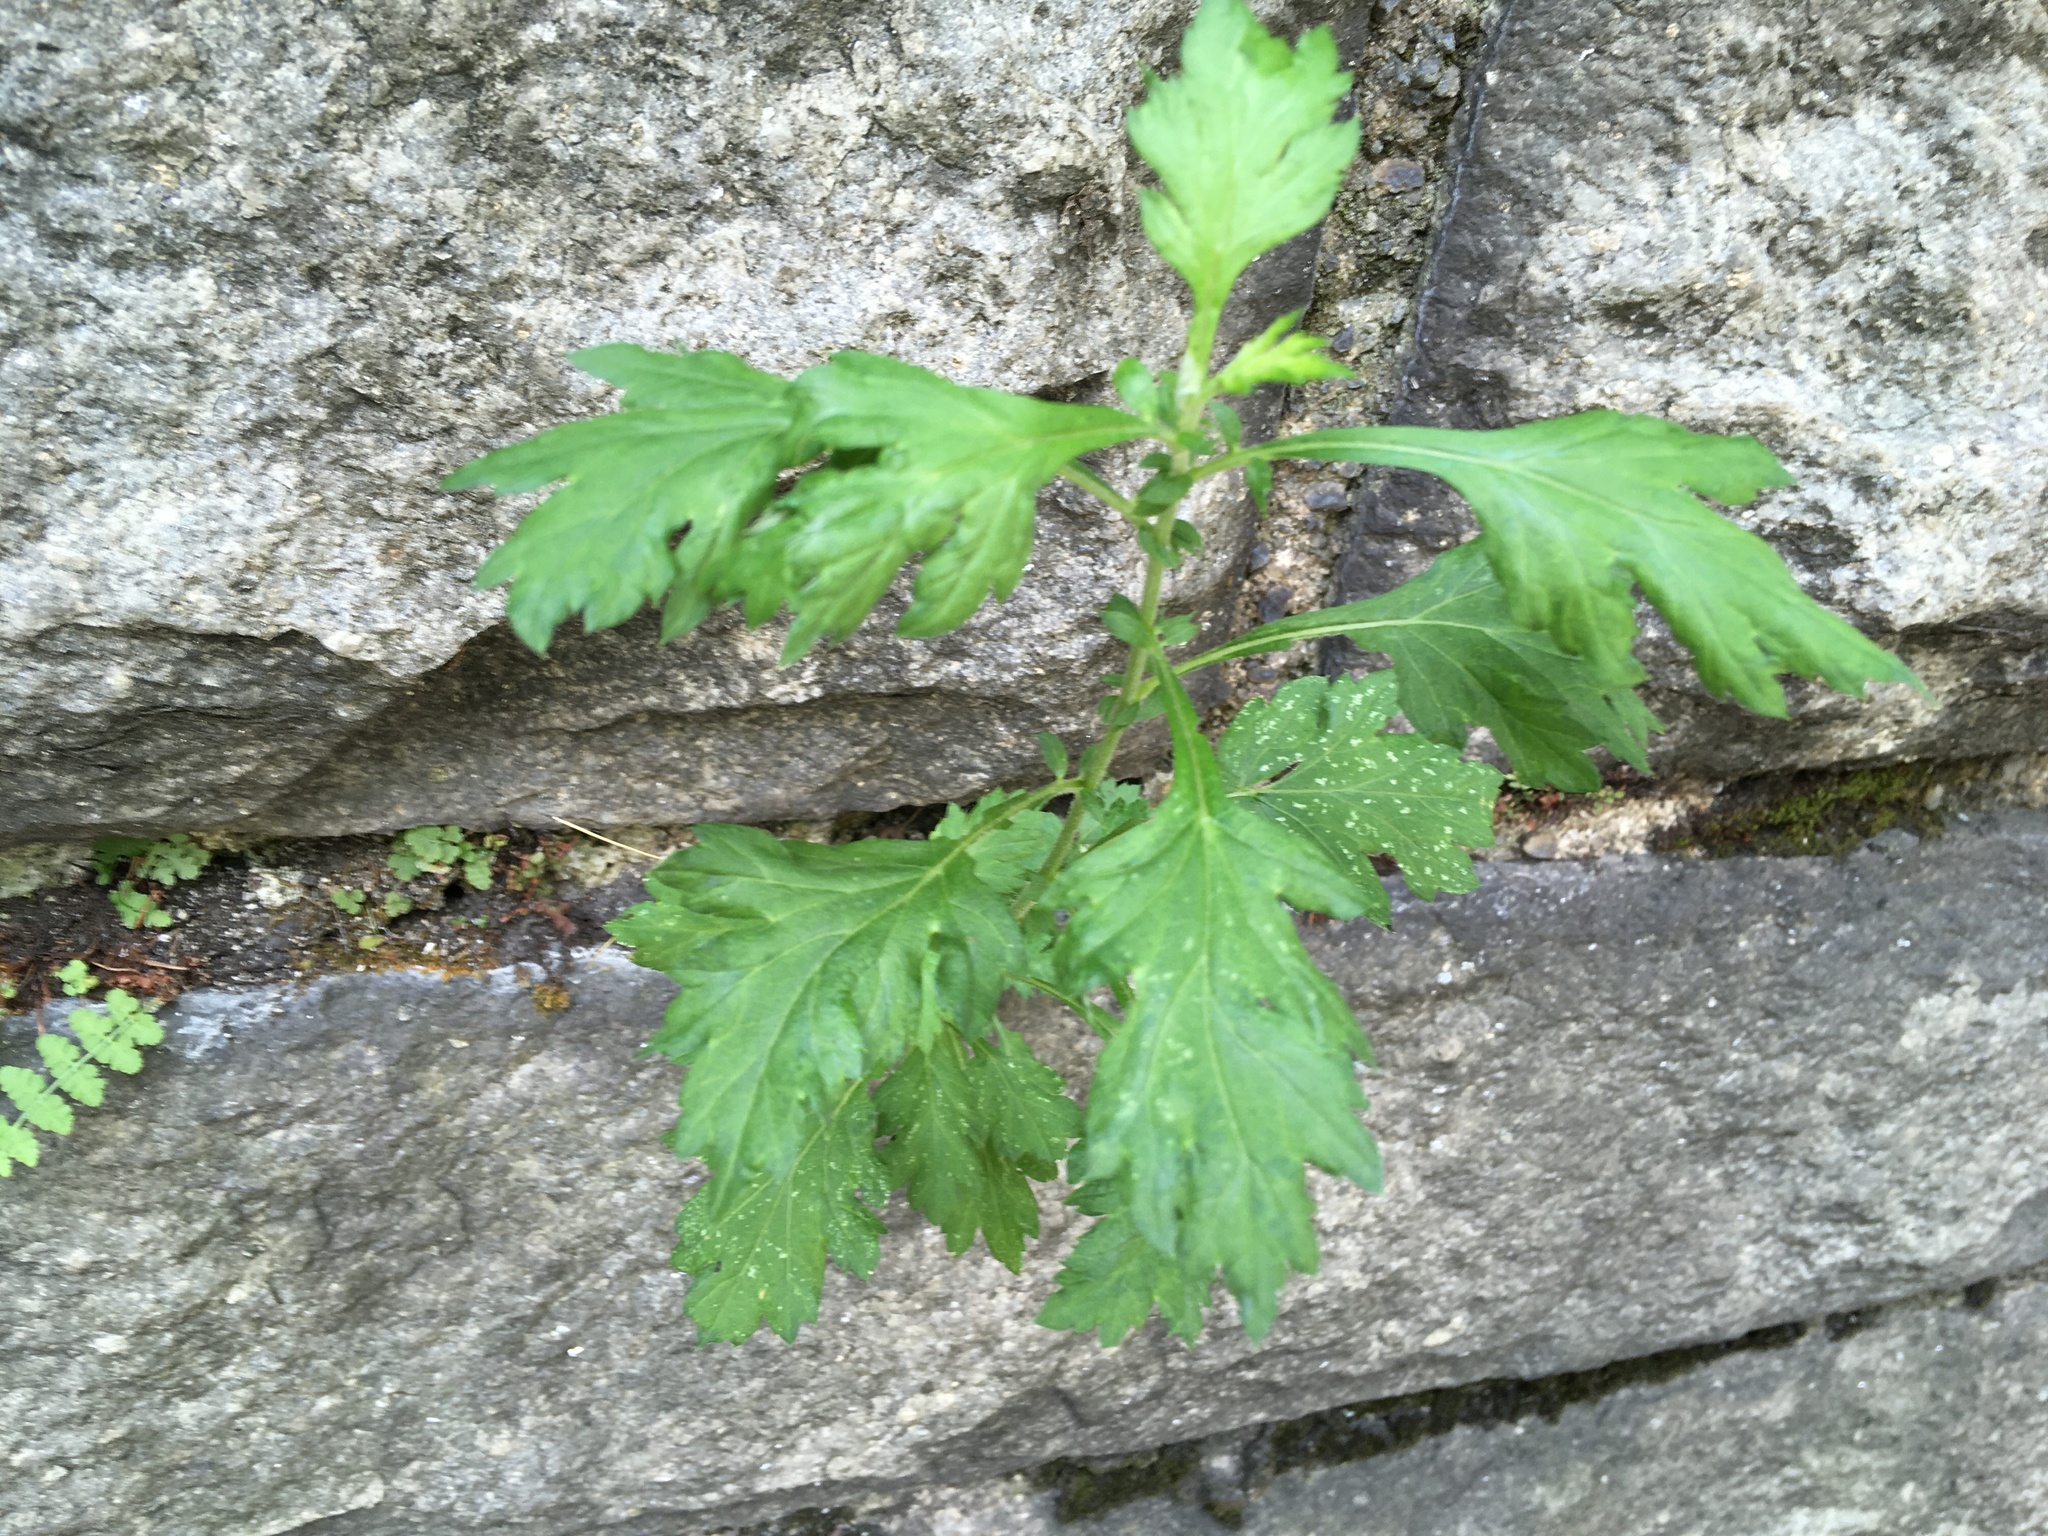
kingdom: Plantae
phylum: Tracheophyta
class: Magnoliopsida
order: Asterales
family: Asteraceae
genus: Artemisia
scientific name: Artemisia vulgaris
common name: Mugwort
